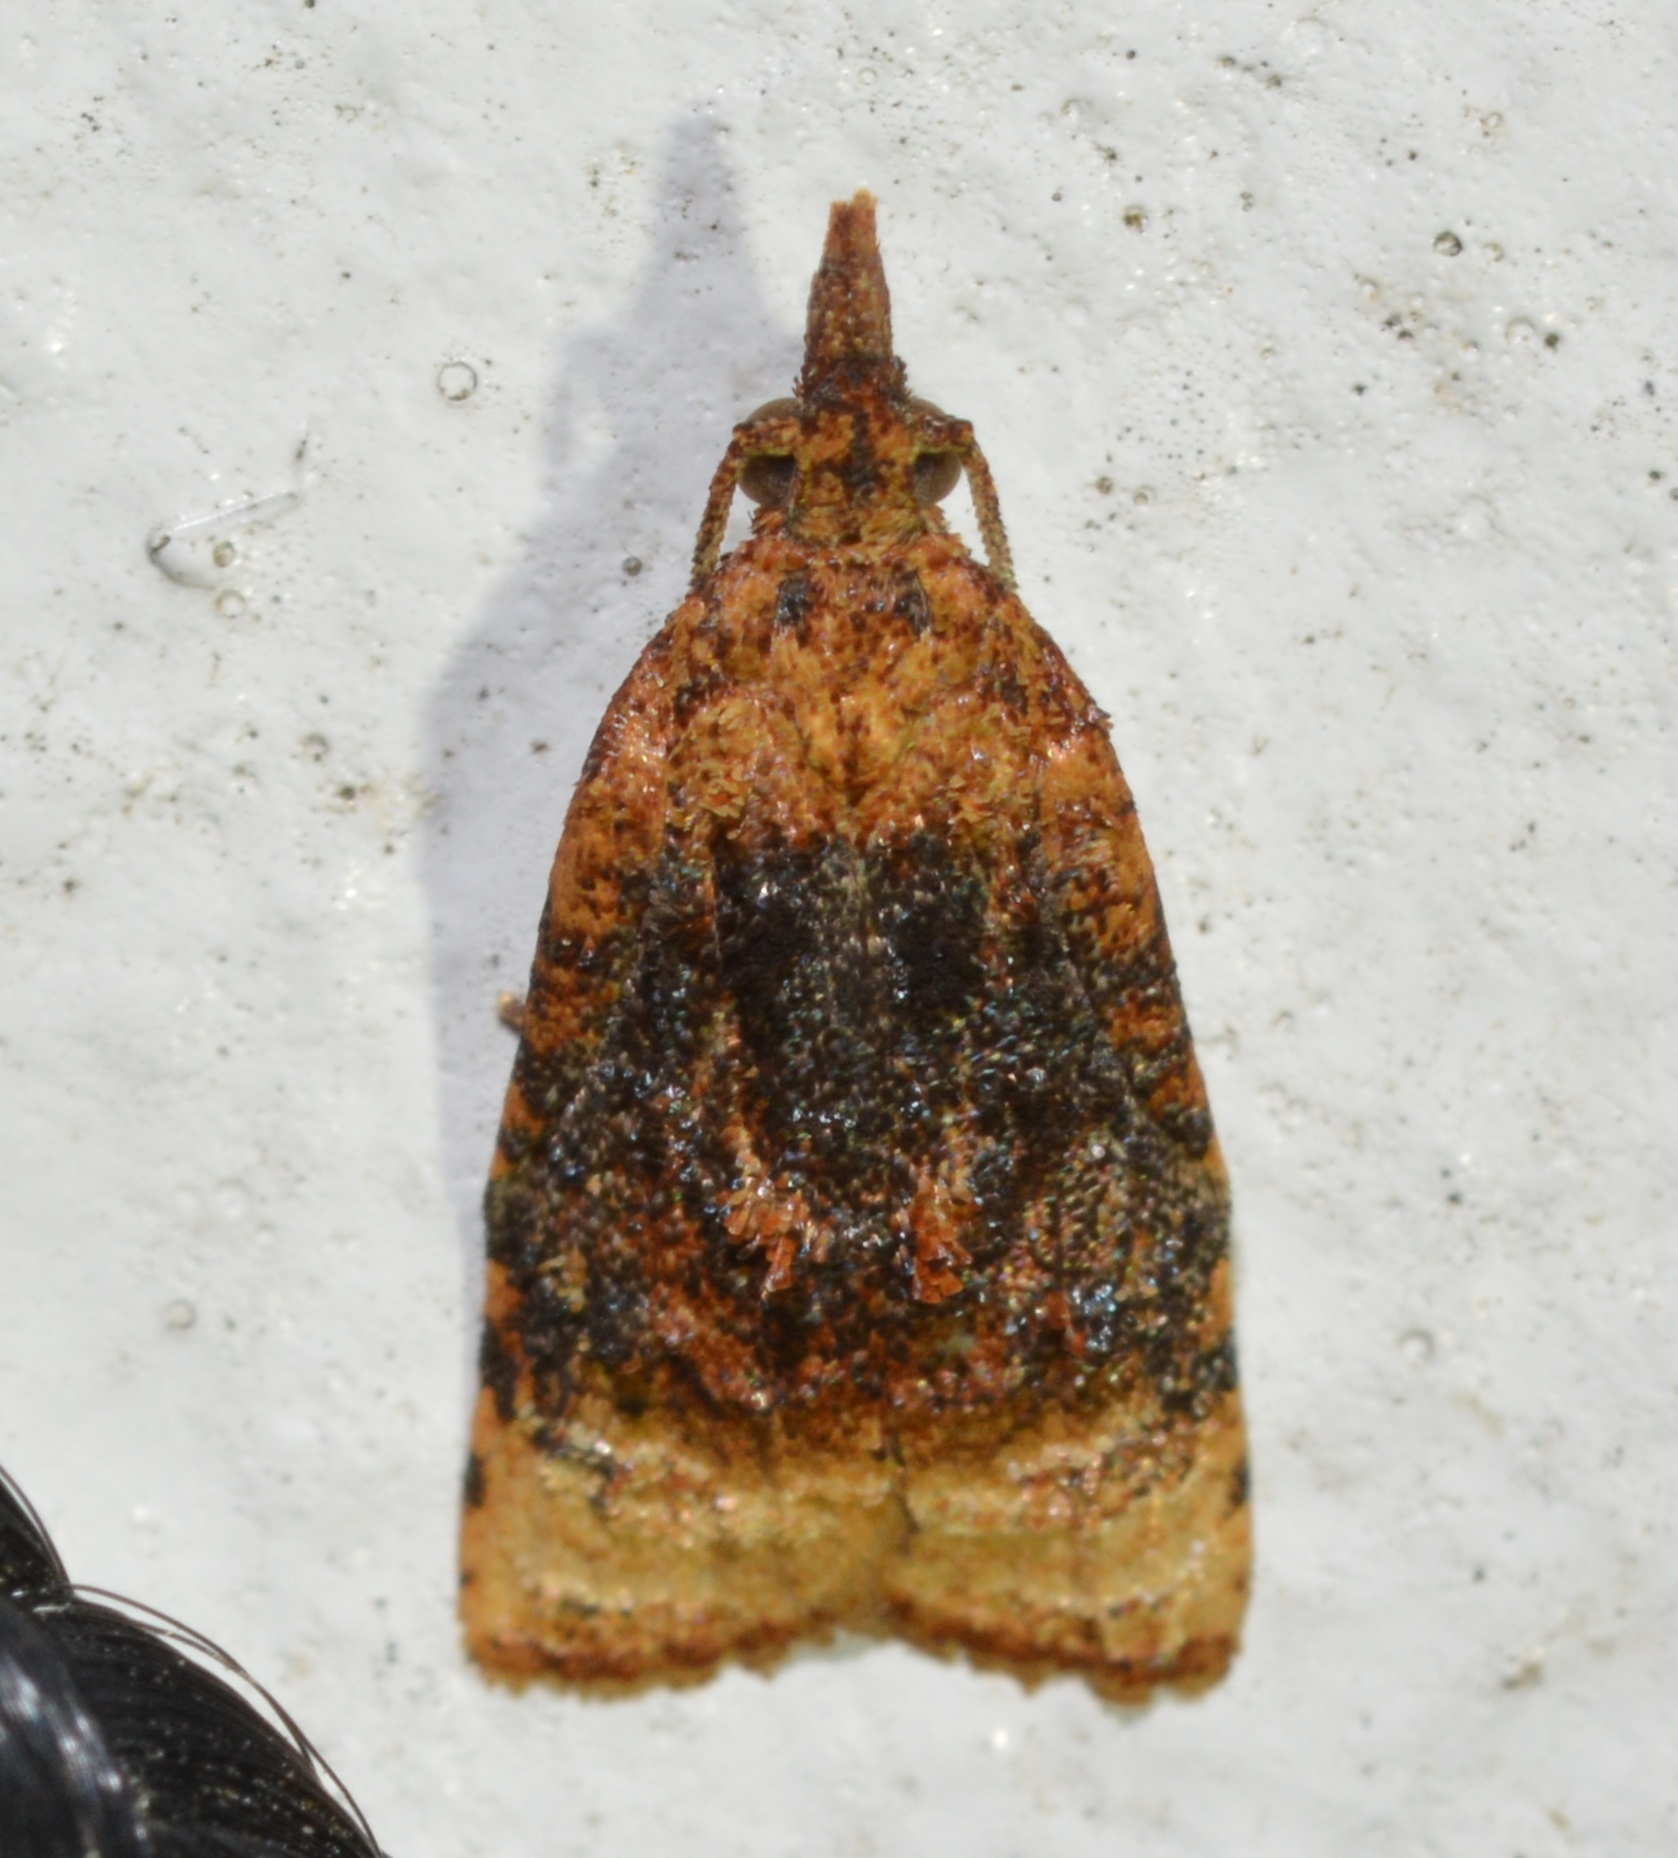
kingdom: Animalia
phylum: Arthropoda
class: Insecta
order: Lepidoptera
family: Tortricidae
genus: Platynota
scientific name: Platynota flavedana
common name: Black-shaded platynota moth
